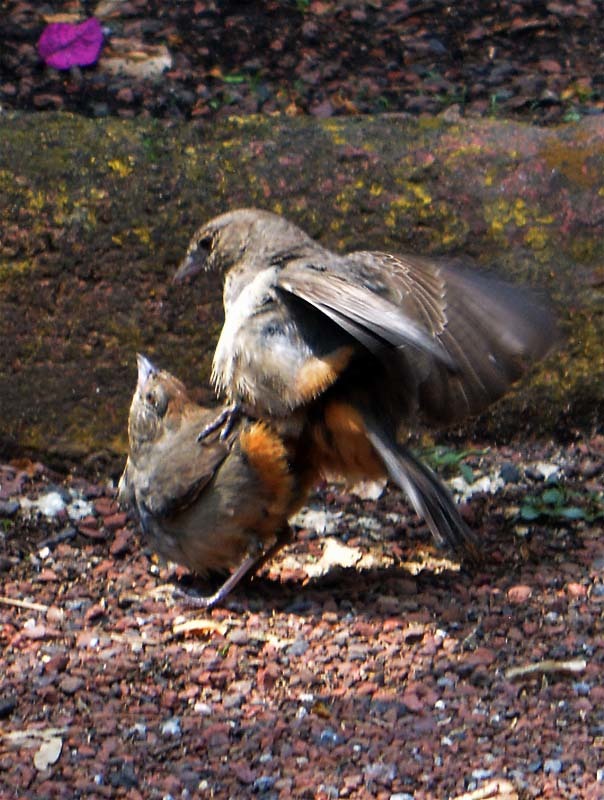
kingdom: Animalia
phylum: Chordata
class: Aves
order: Passeriformes
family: Passerellidae
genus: Melozone
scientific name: Melozone fusca
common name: Canyon towhee
